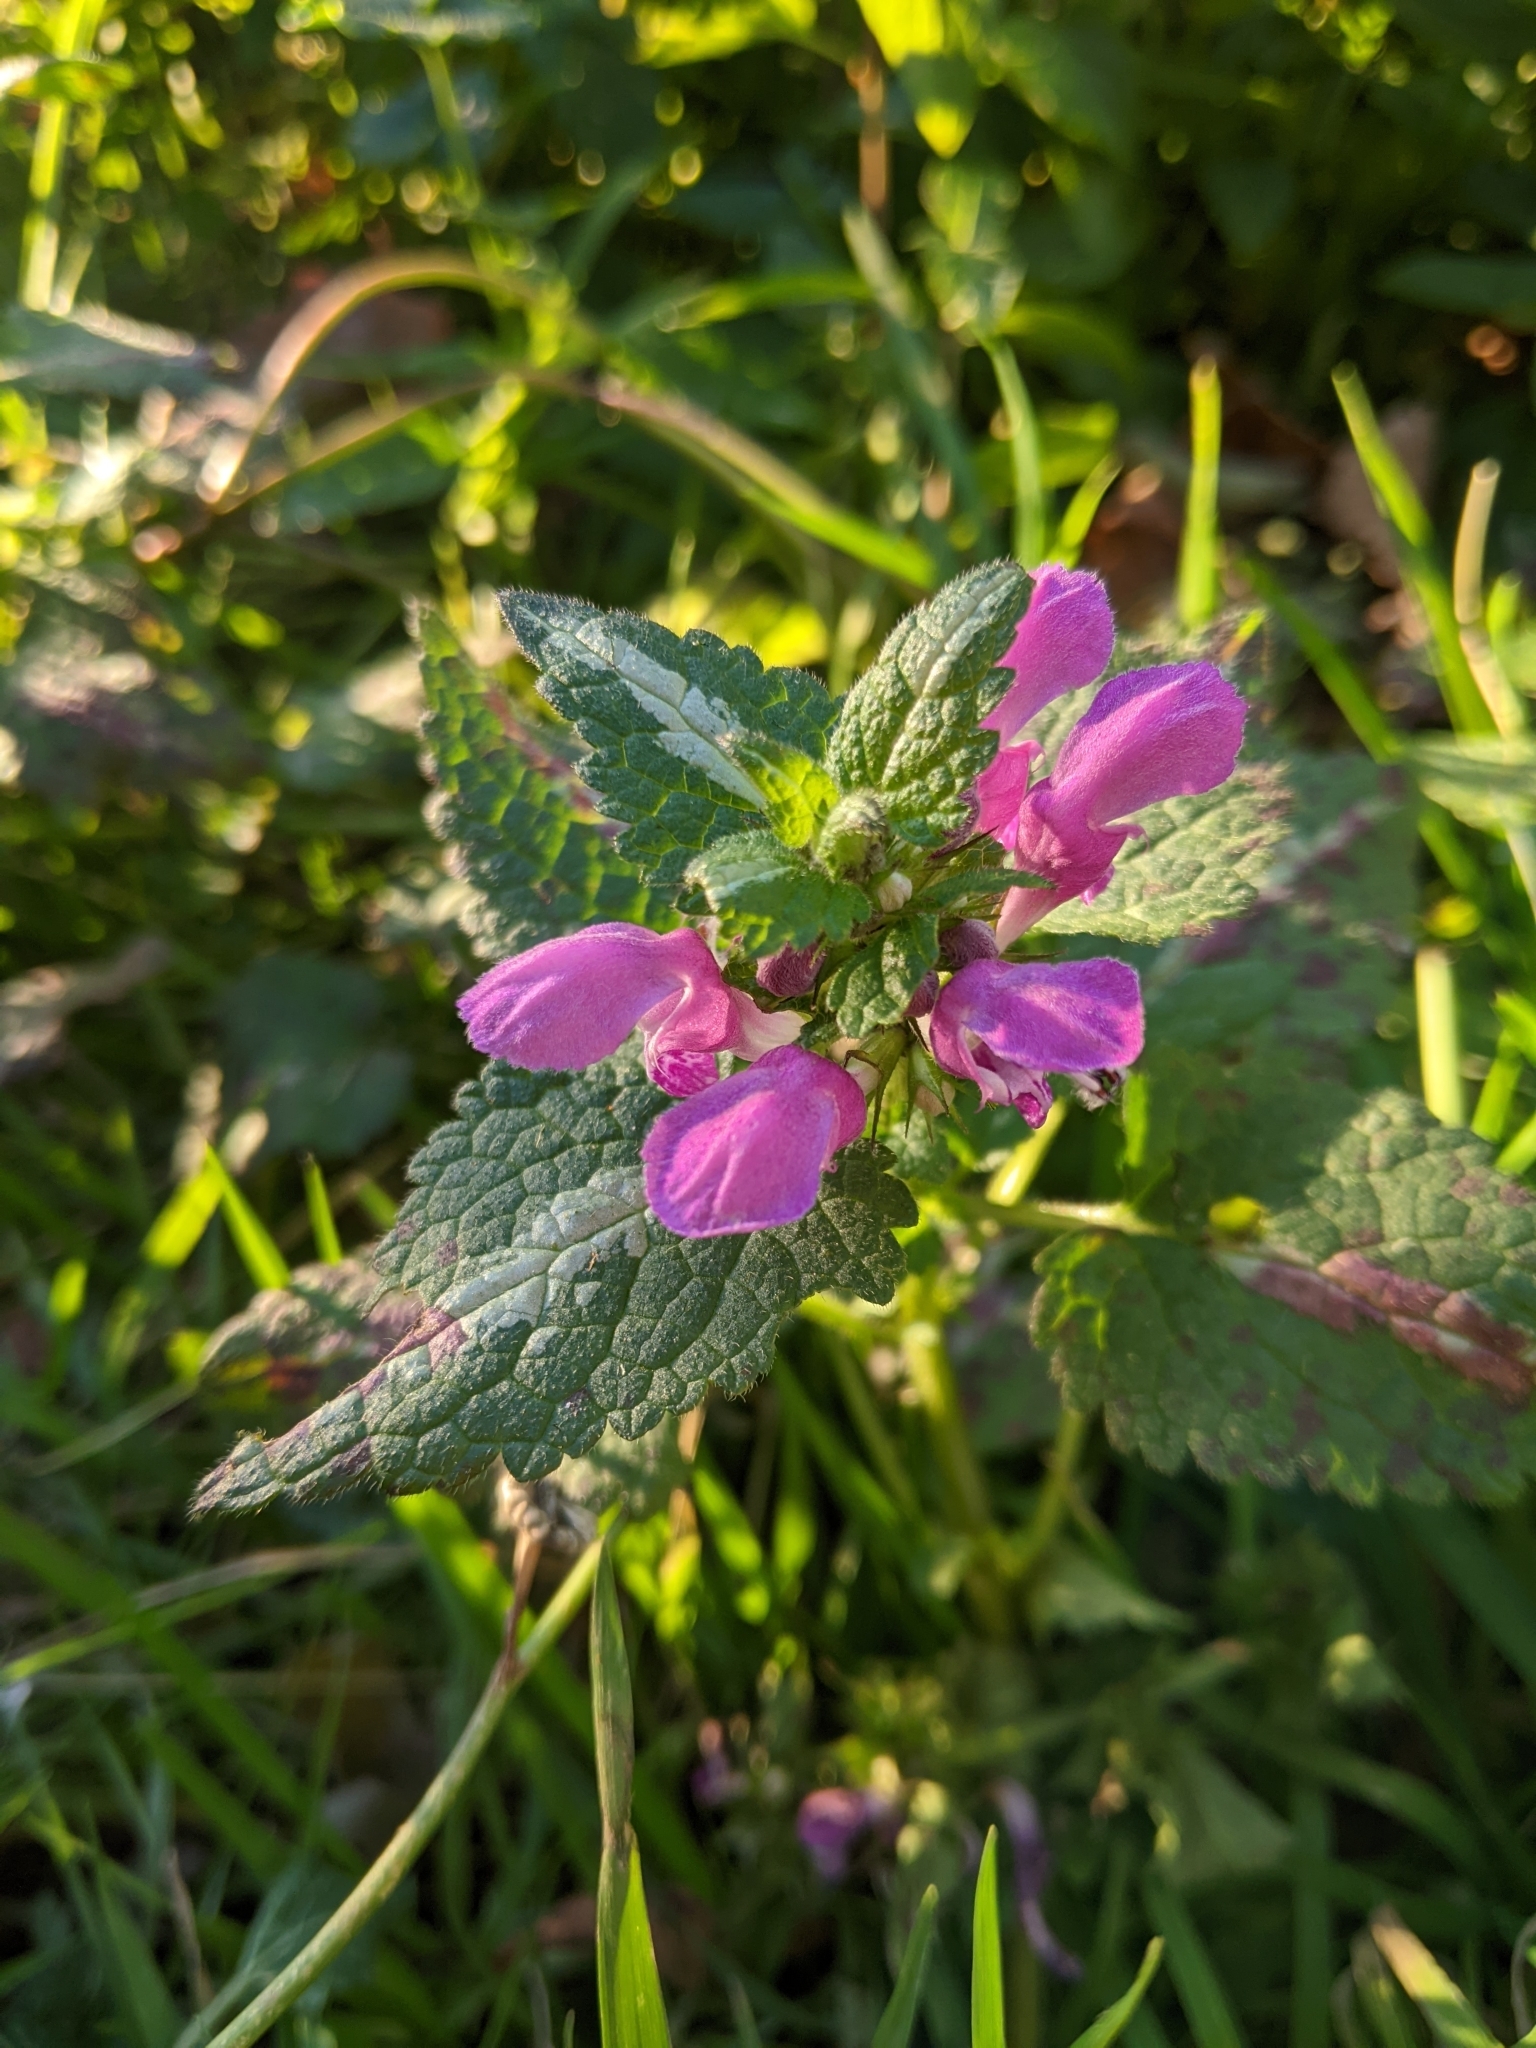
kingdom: Plantae
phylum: Tracheophyta
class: Magnoliopsida
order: Lamiales
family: Lamiaceae
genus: Lamium
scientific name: Lamium maculatum
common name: Spotted dead-nettle
